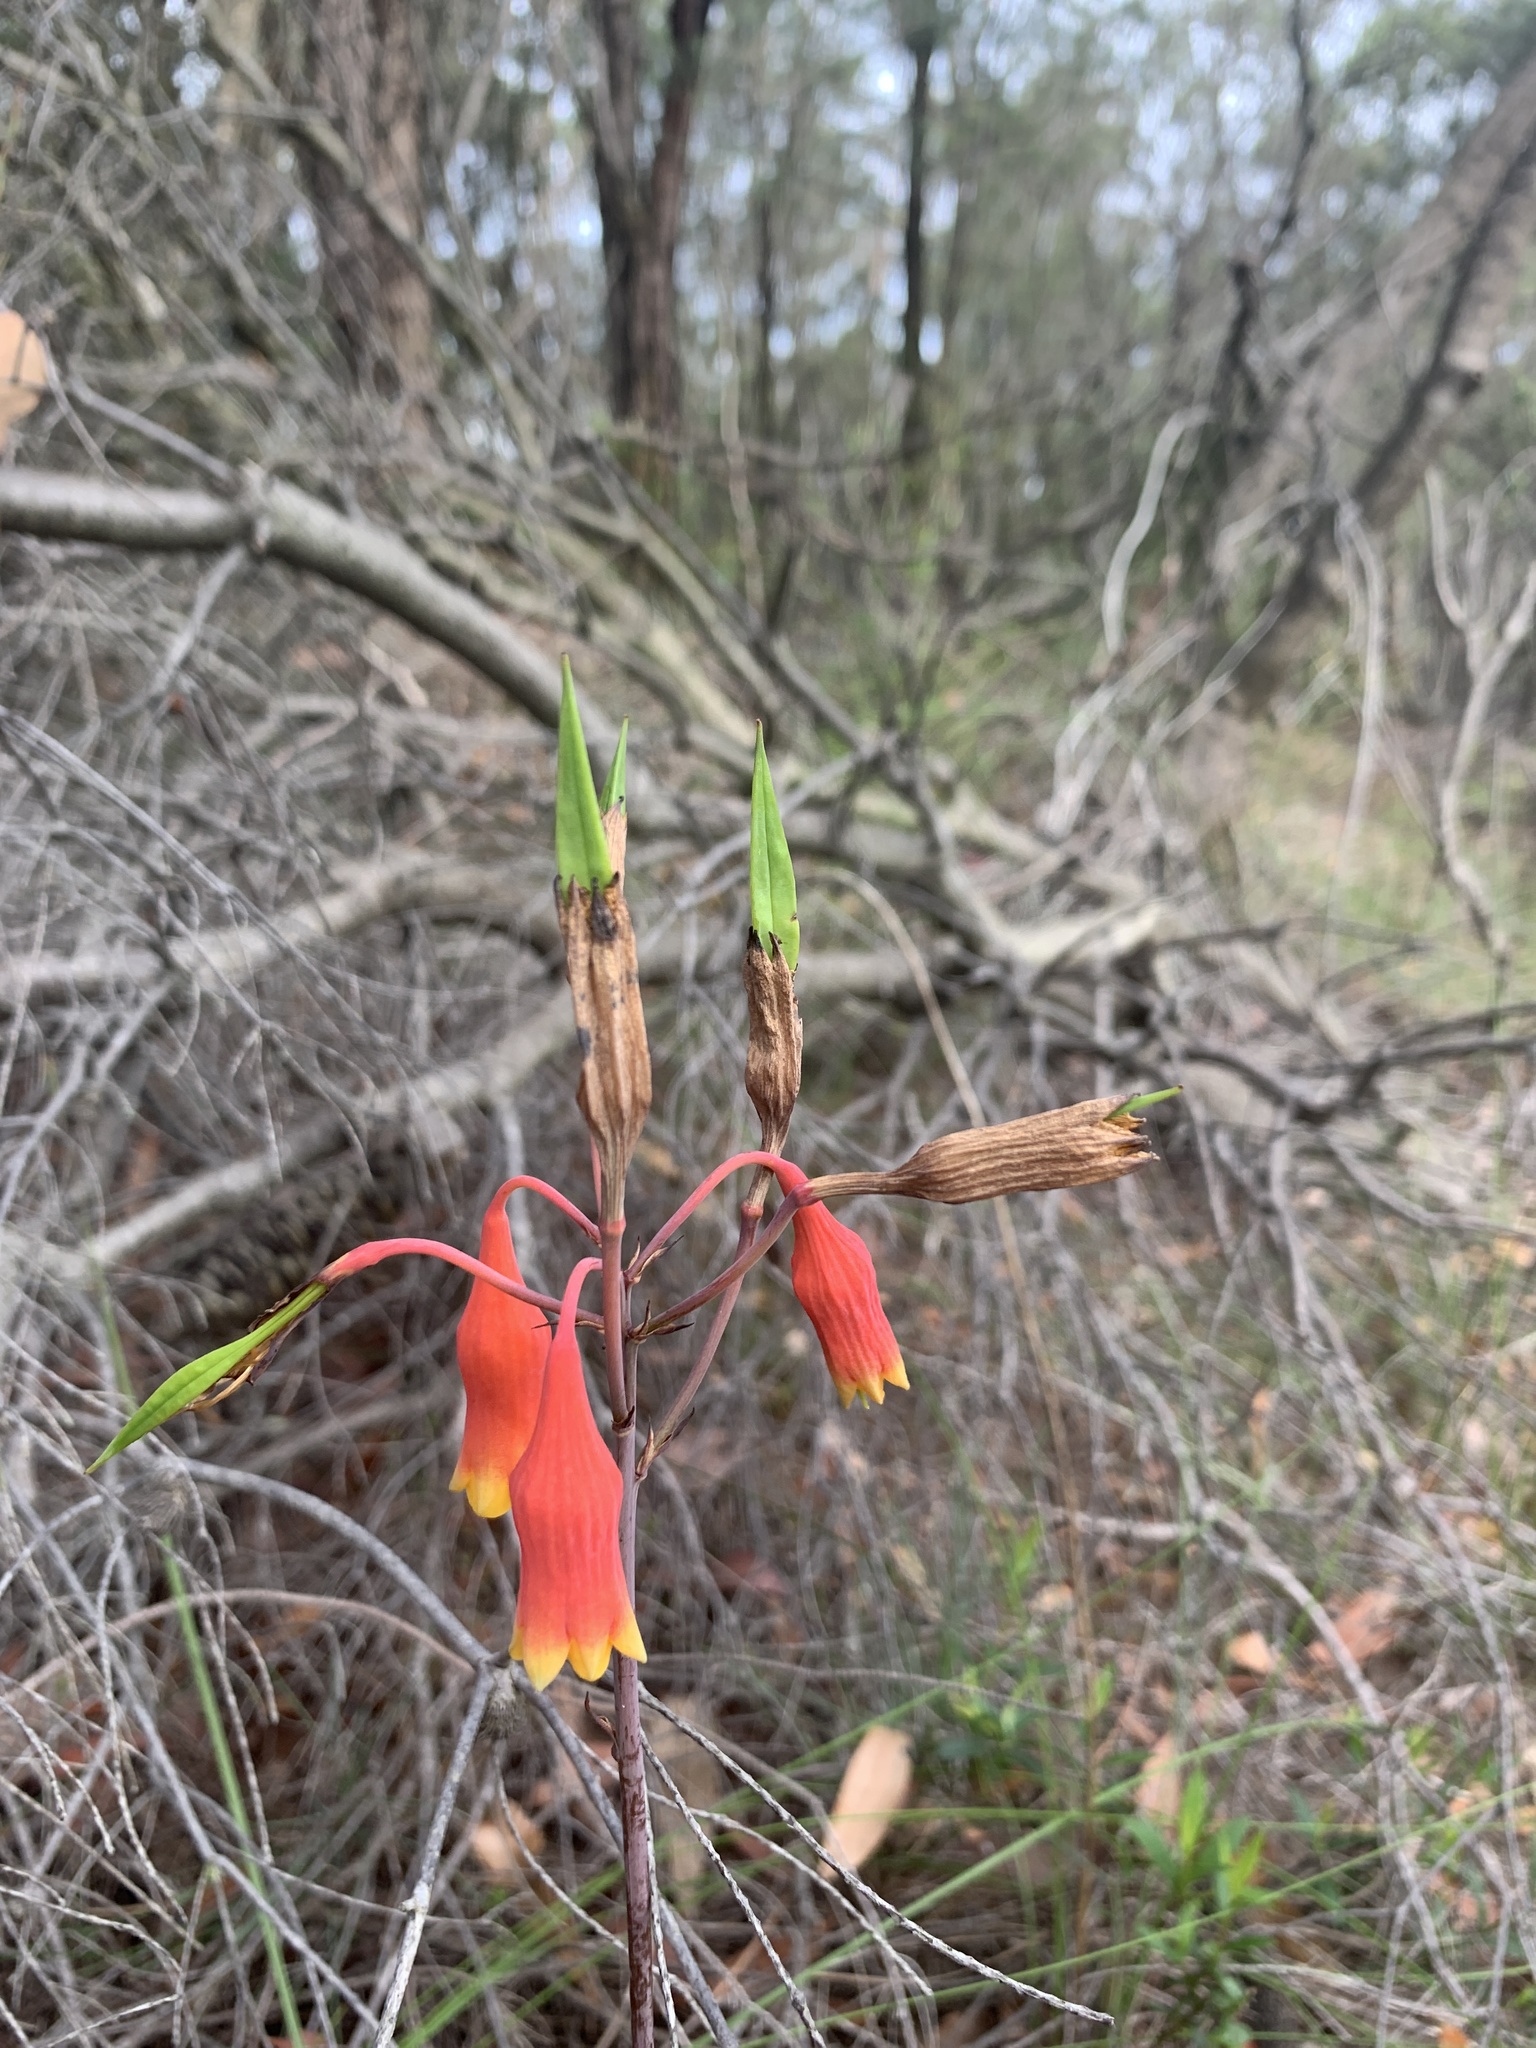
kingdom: Plantae
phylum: Tracheophyta
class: Liliopsida
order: Asparagales
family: Blandfordiaceae
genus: Blandfordia
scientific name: Blandfordia nobilis
